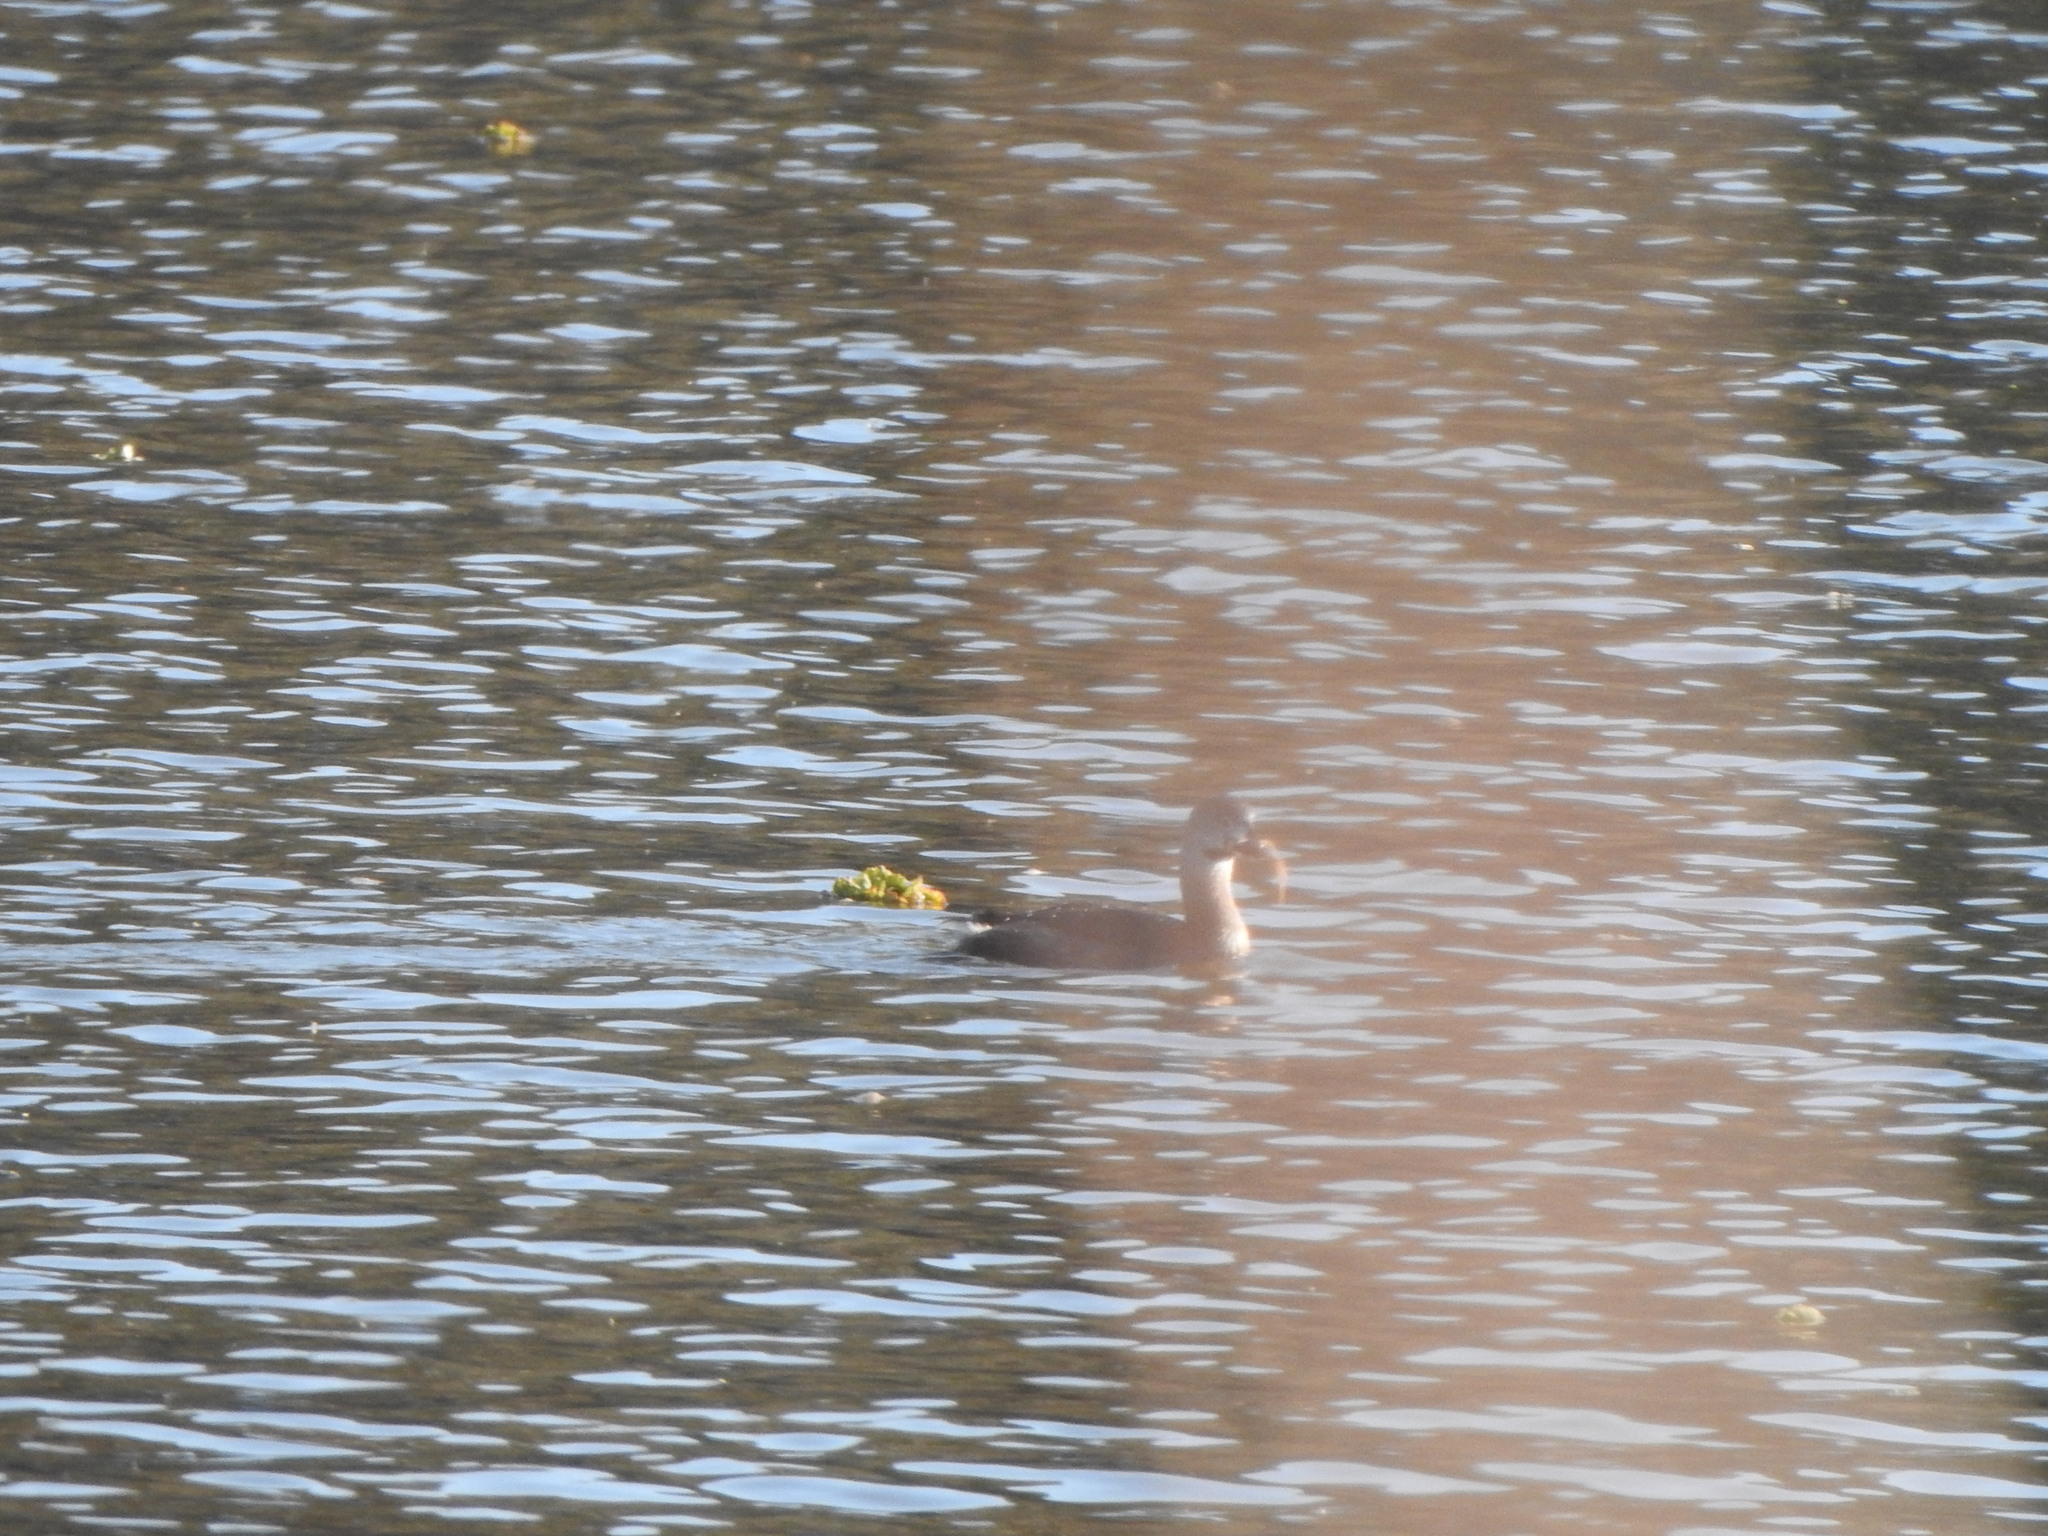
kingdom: Animalia
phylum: Chordata
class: Aves
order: Podicipediformes
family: Podicipedidae
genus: Podilymbus
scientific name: Podilymbus podiceps
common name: Pied-billed grebe
